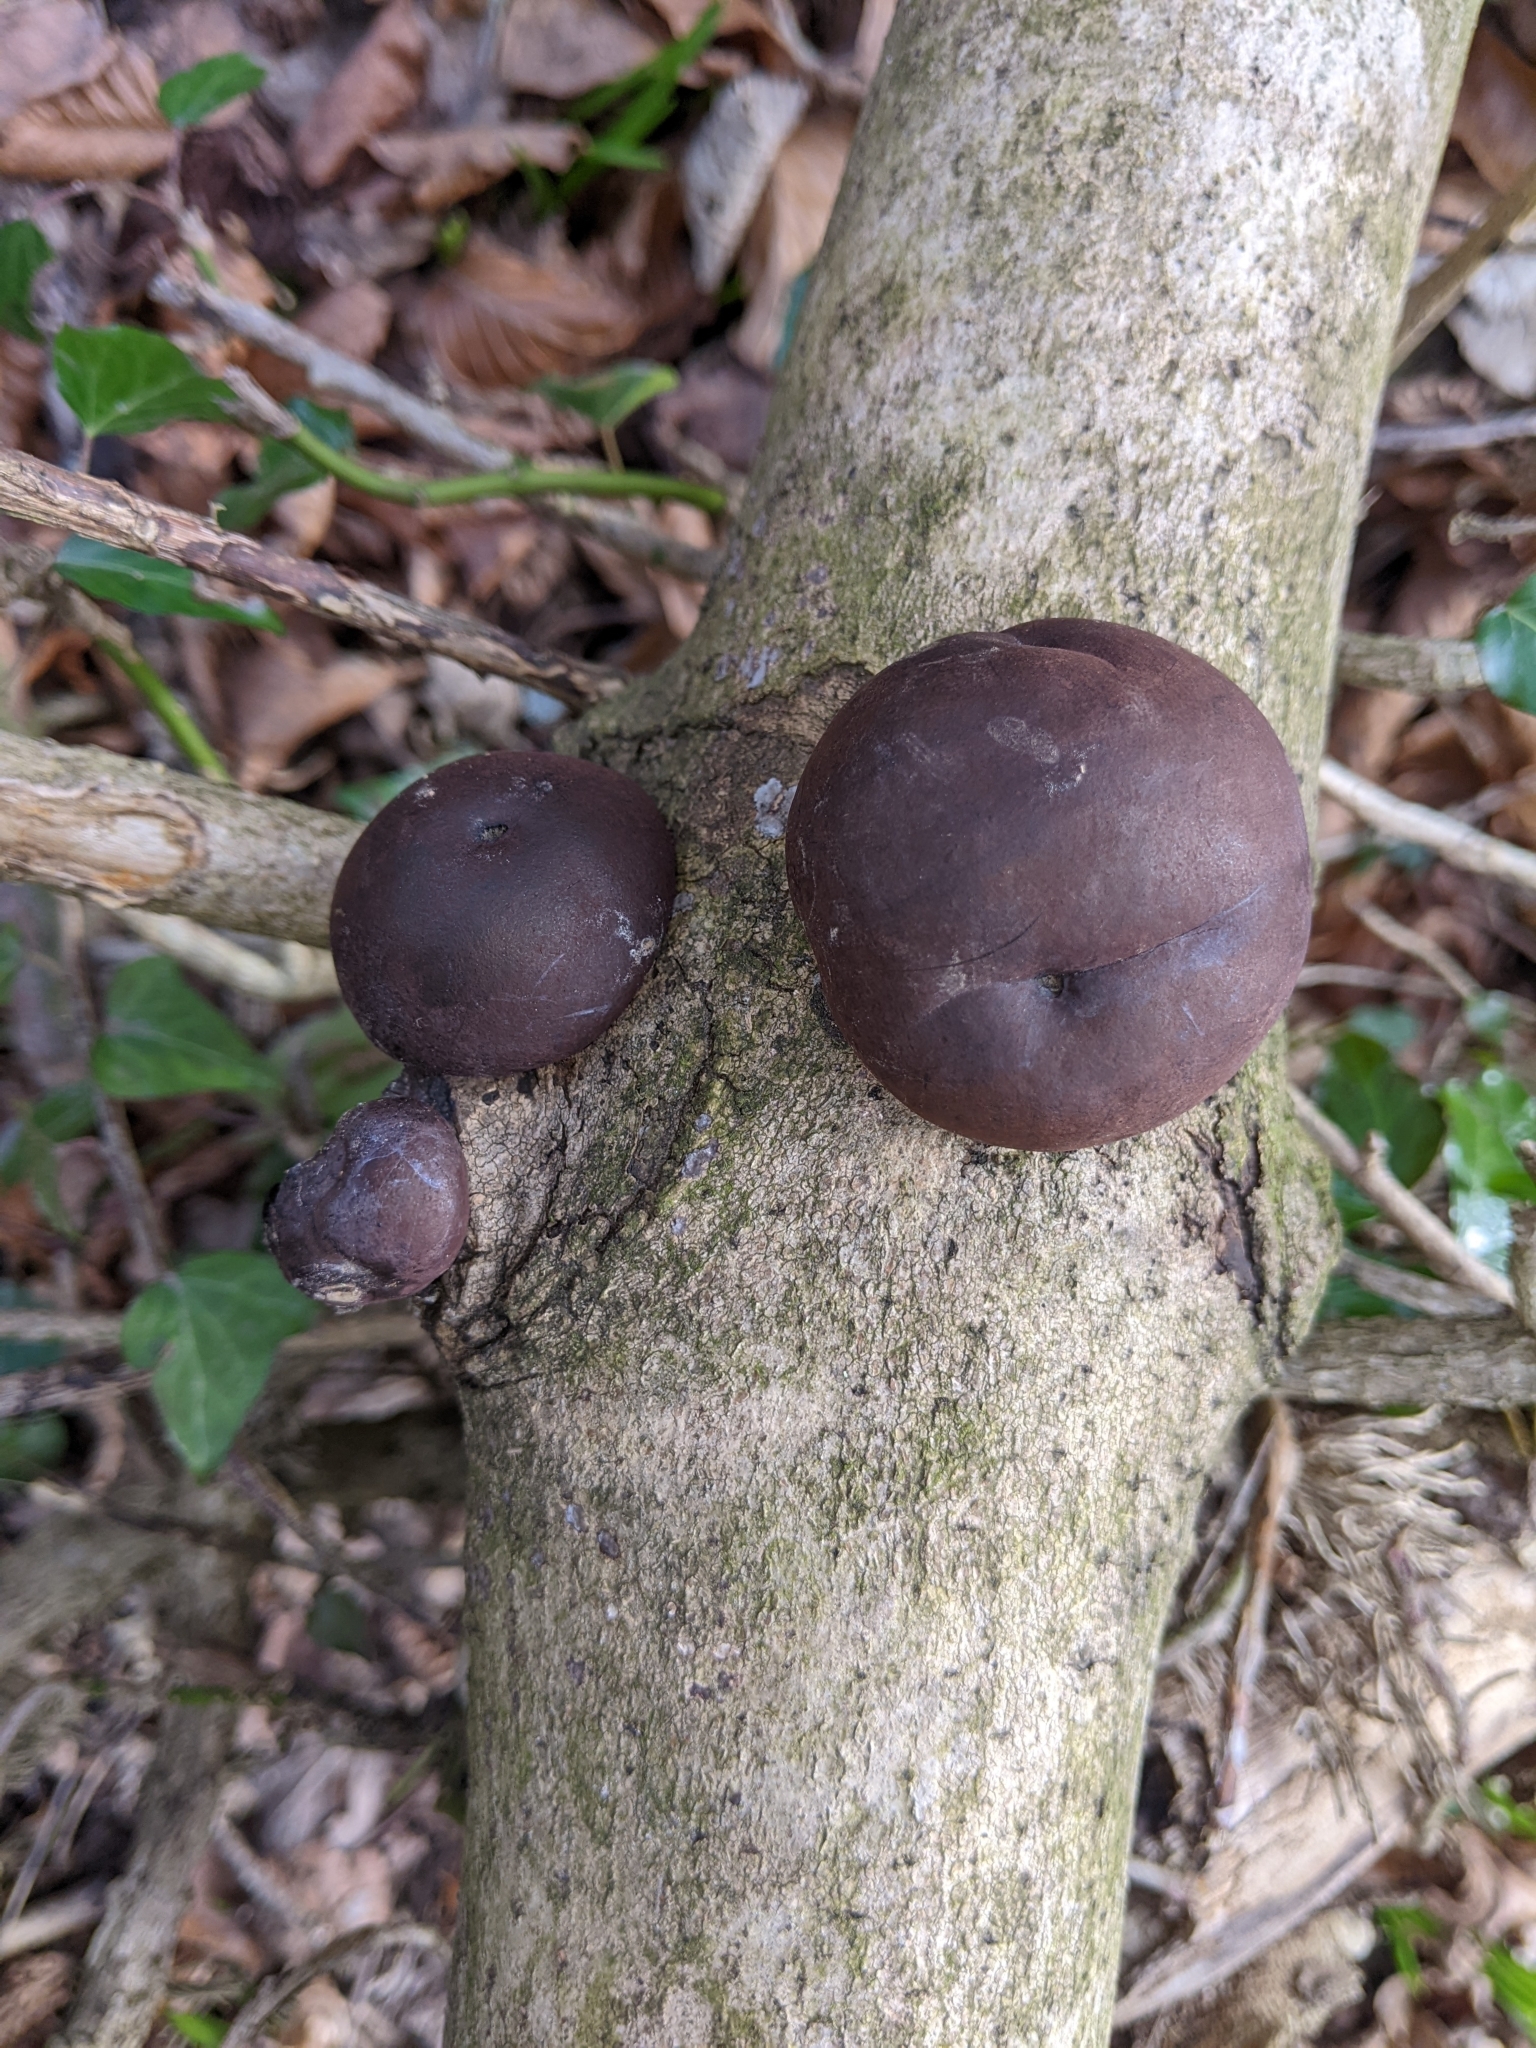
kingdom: Fungi
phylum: Ascomycota
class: Sordariomycetes
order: Xylariales
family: Hypoxylaceae
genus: Daldinia
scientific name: Daldinia concentrica
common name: Cramp balls
